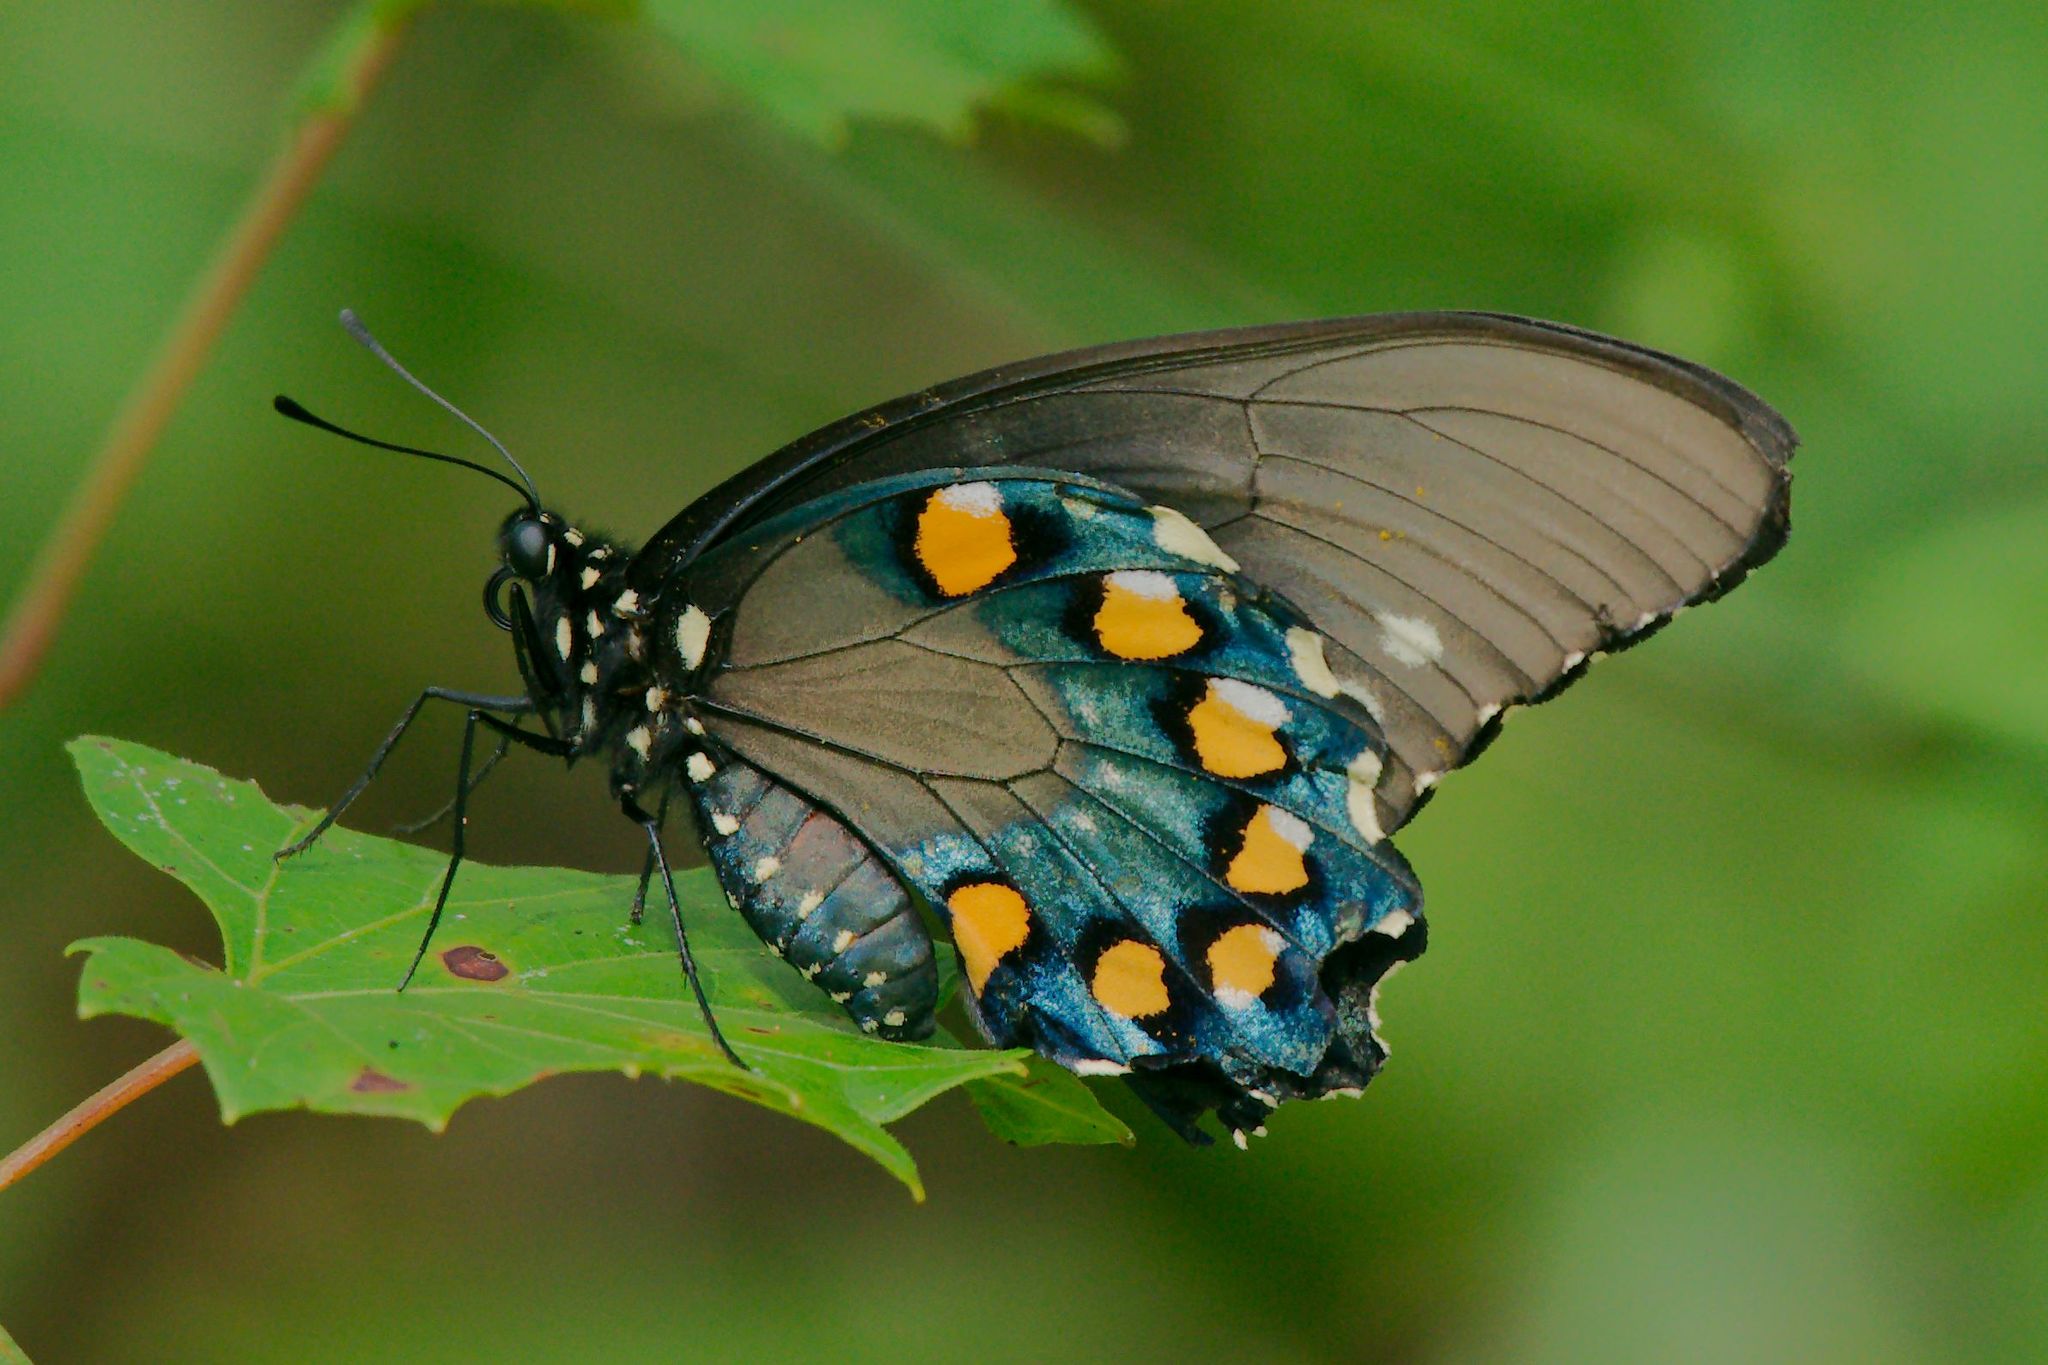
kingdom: Animalia
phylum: Arthropoda
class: Insecta
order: Lepidoptera
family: Papilionidae
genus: Battus
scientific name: Battus philenor
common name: Pipevine swallowtail
